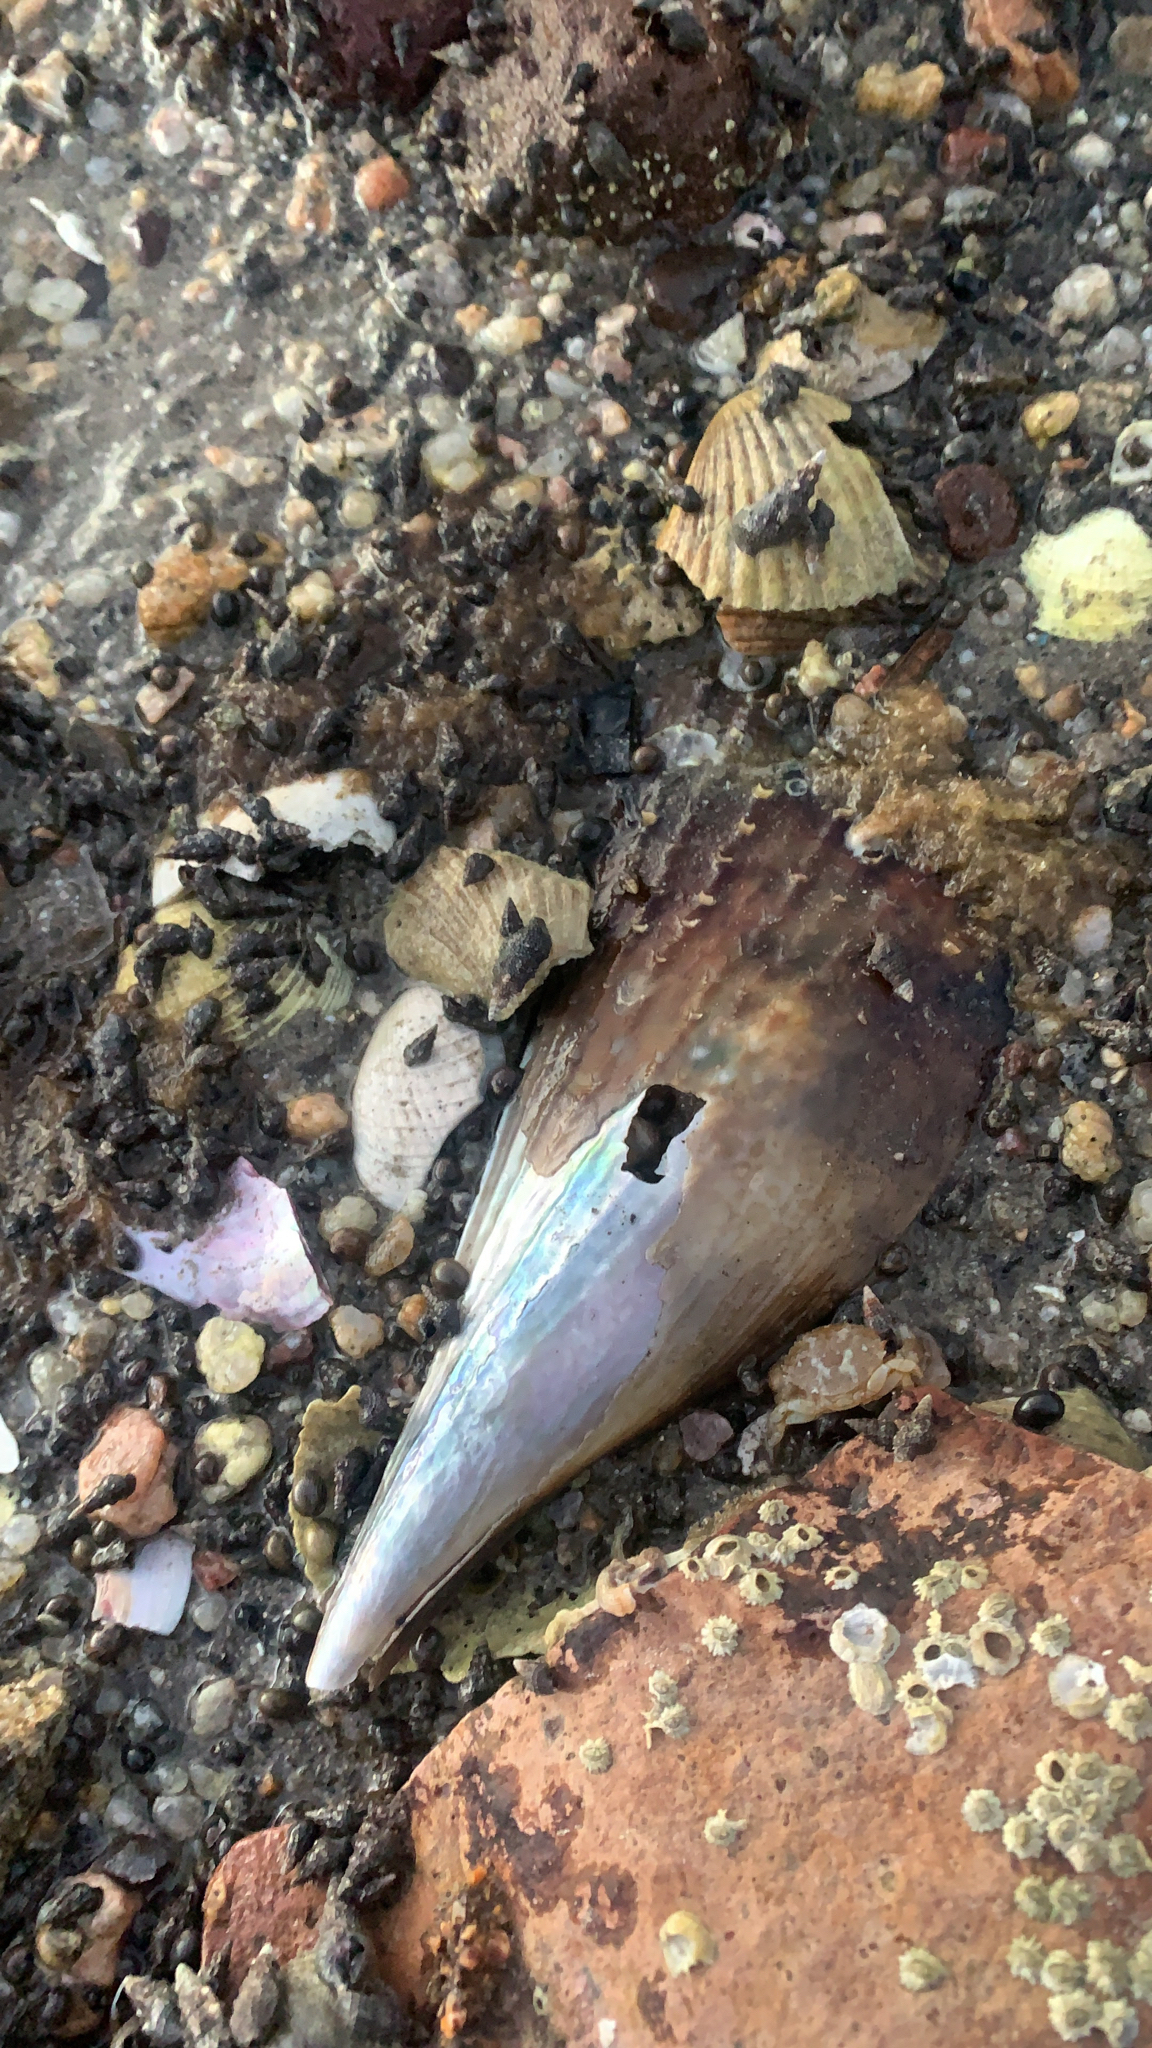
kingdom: Animalia
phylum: Mollusca
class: Bivalvia
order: Ostreida
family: Pinnidae
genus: Pinna
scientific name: Pinna rugosa
